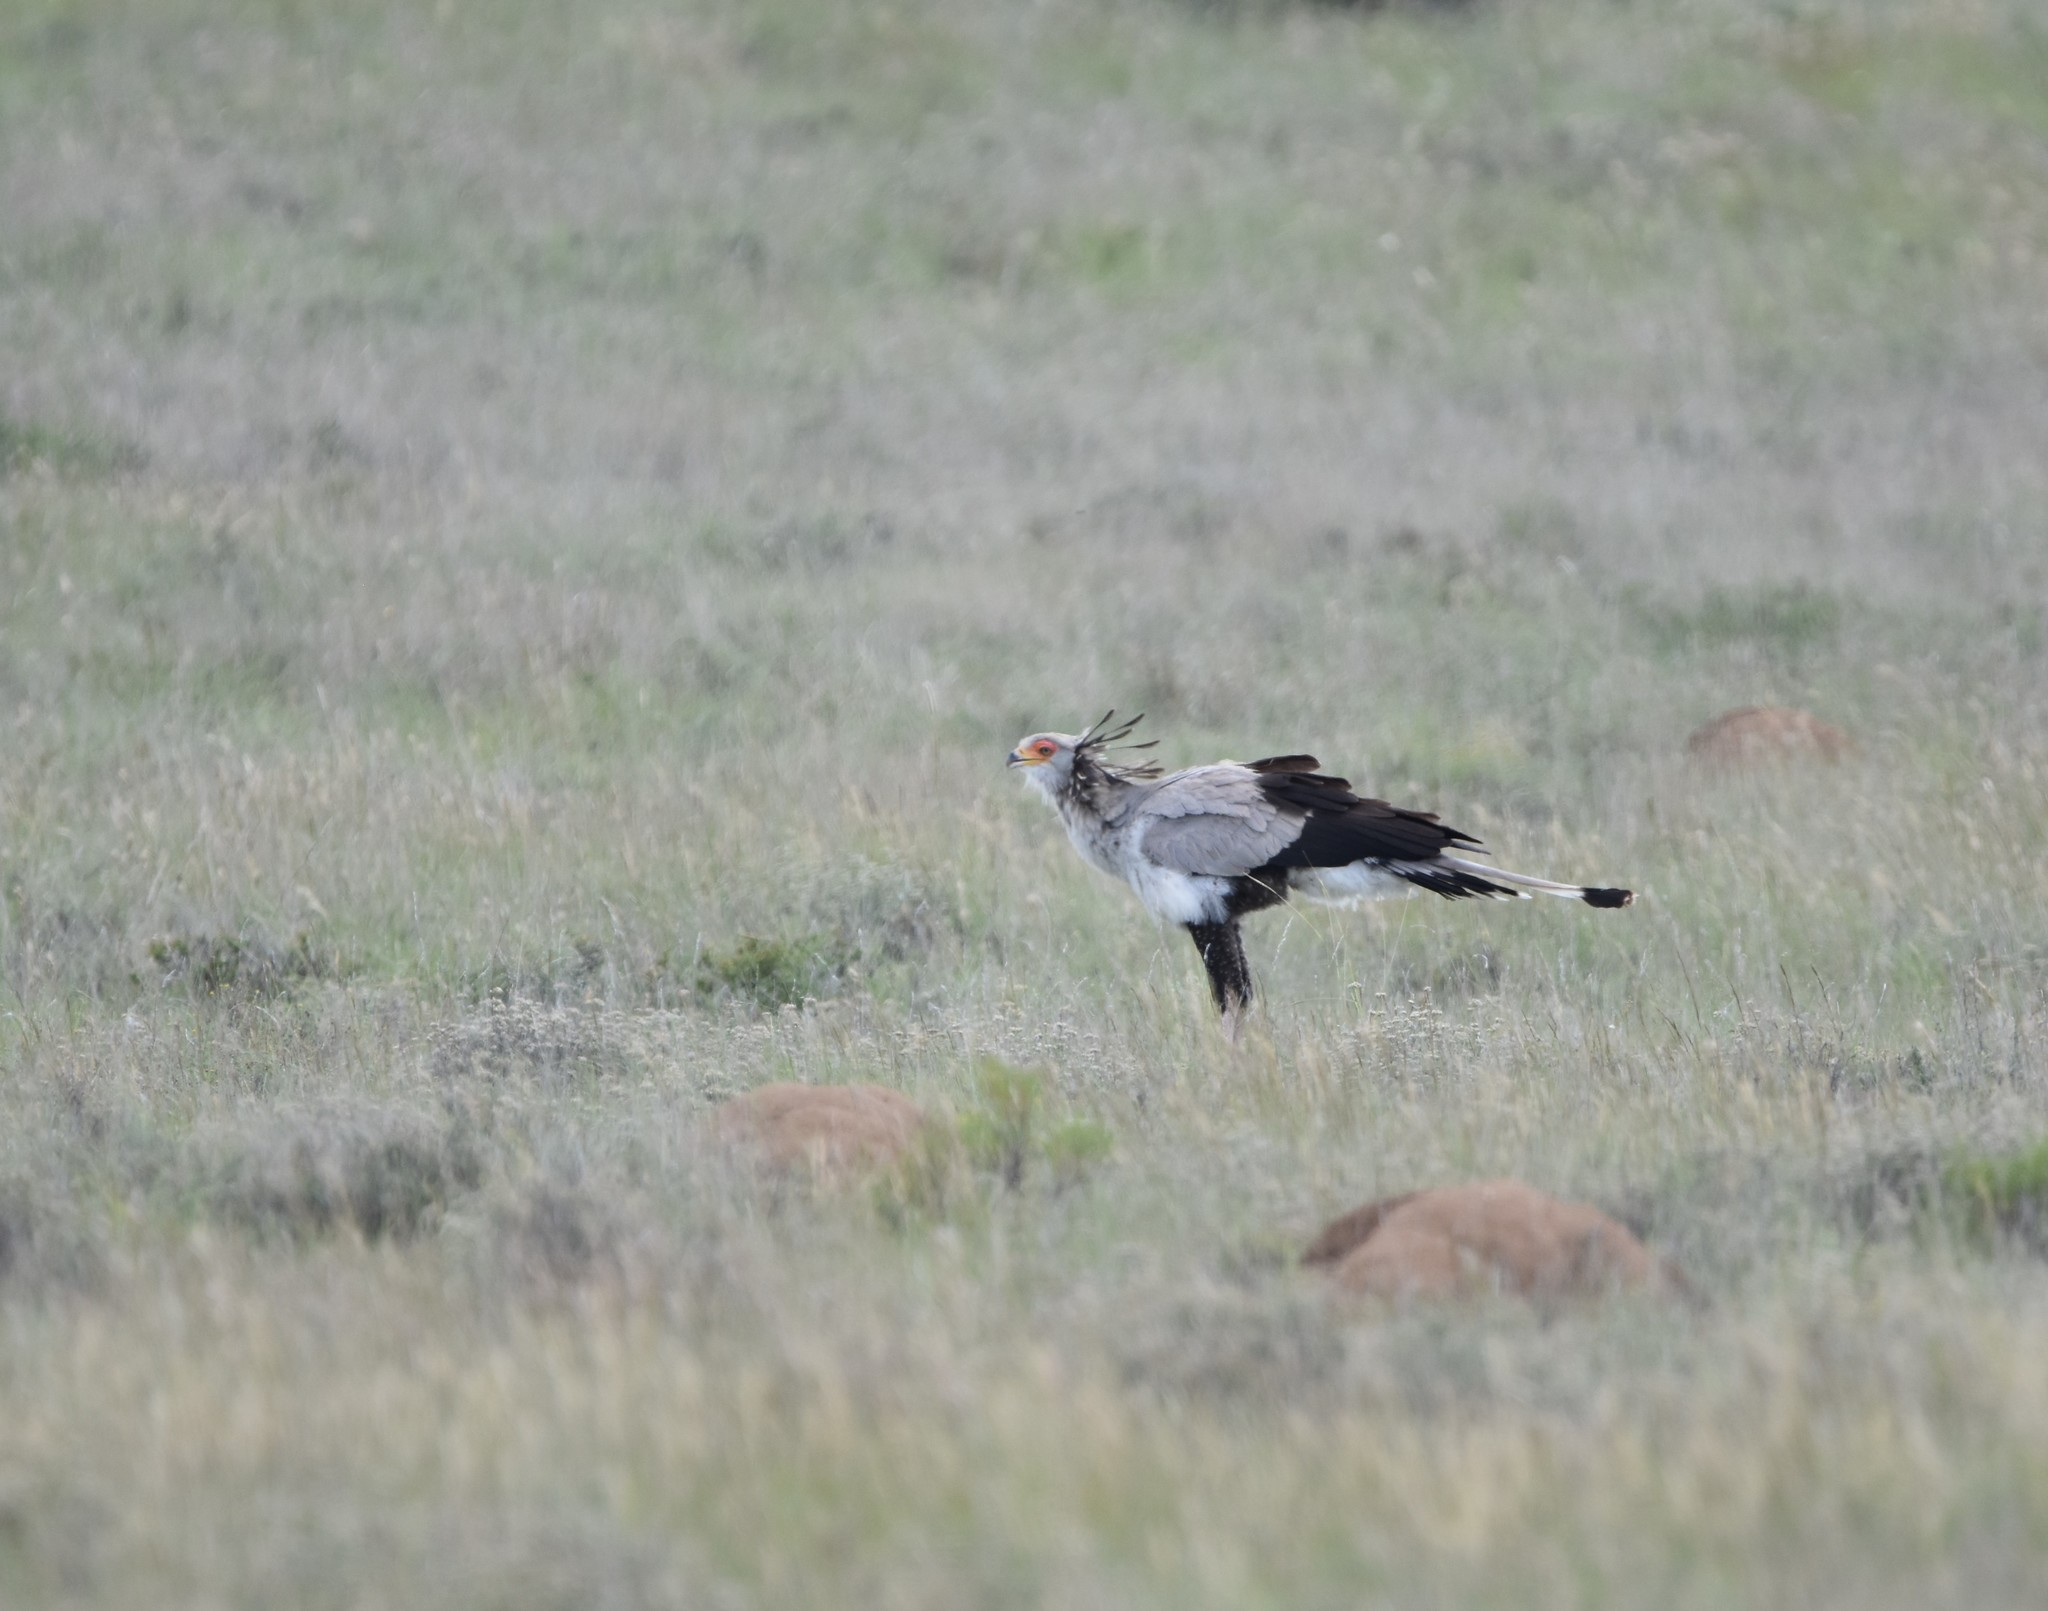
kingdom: Animalia
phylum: Chordata
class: Aves
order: Accipitriformes
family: Sagittariidae
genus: Sagittarius
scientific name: Sagittarius serpentarius
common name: Secretarybird
